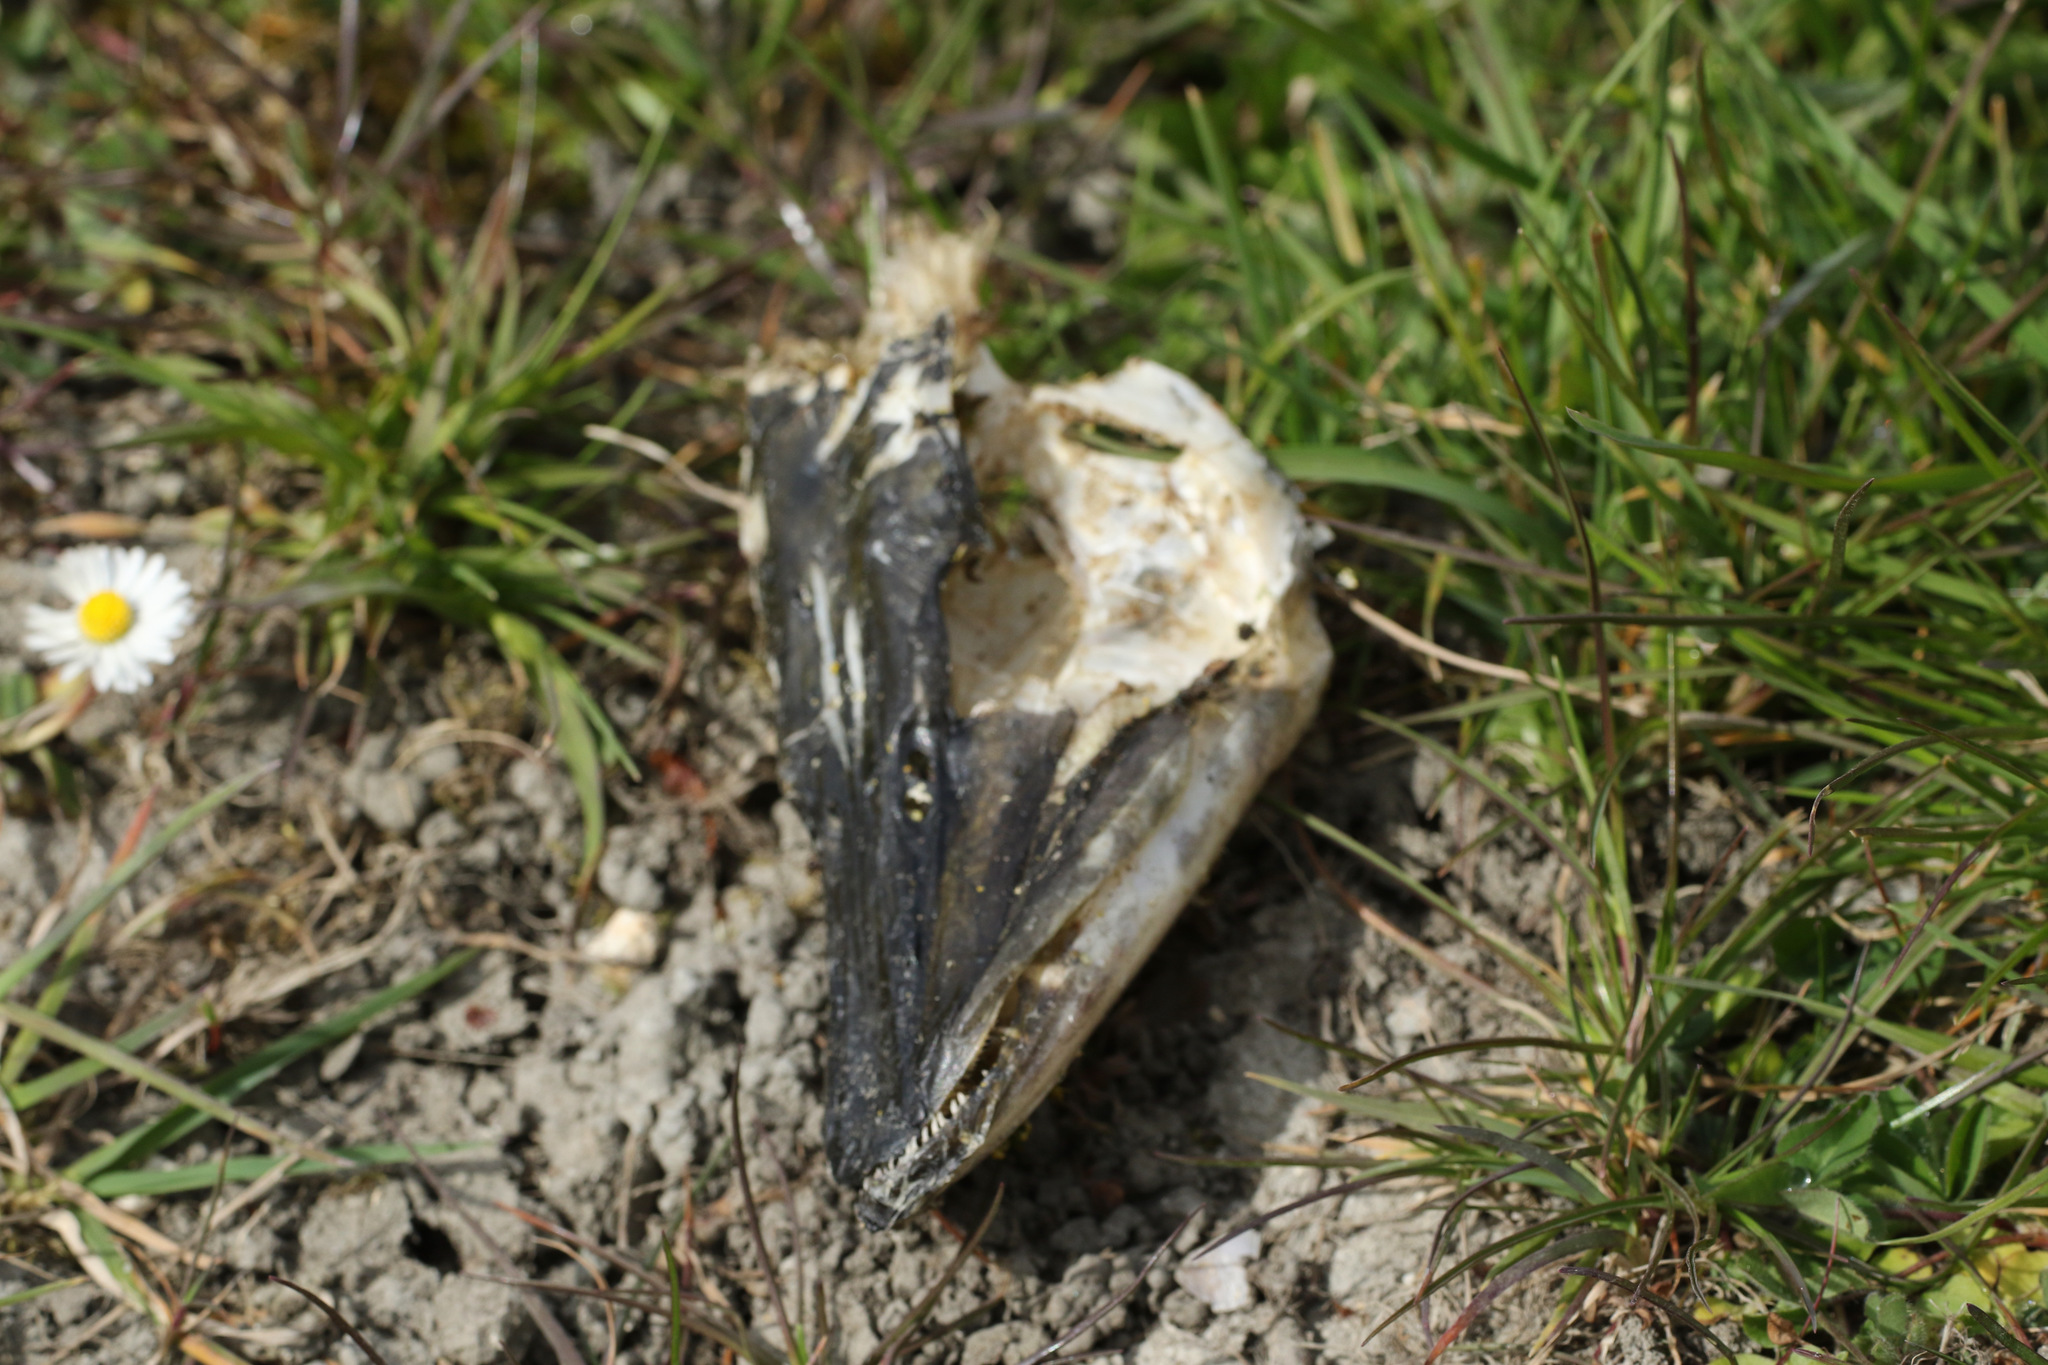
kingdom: Animalia
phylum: Chordata
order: Esociformes
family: Esocidae
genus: Esox
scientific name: Esox lucius
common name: Northern pike
